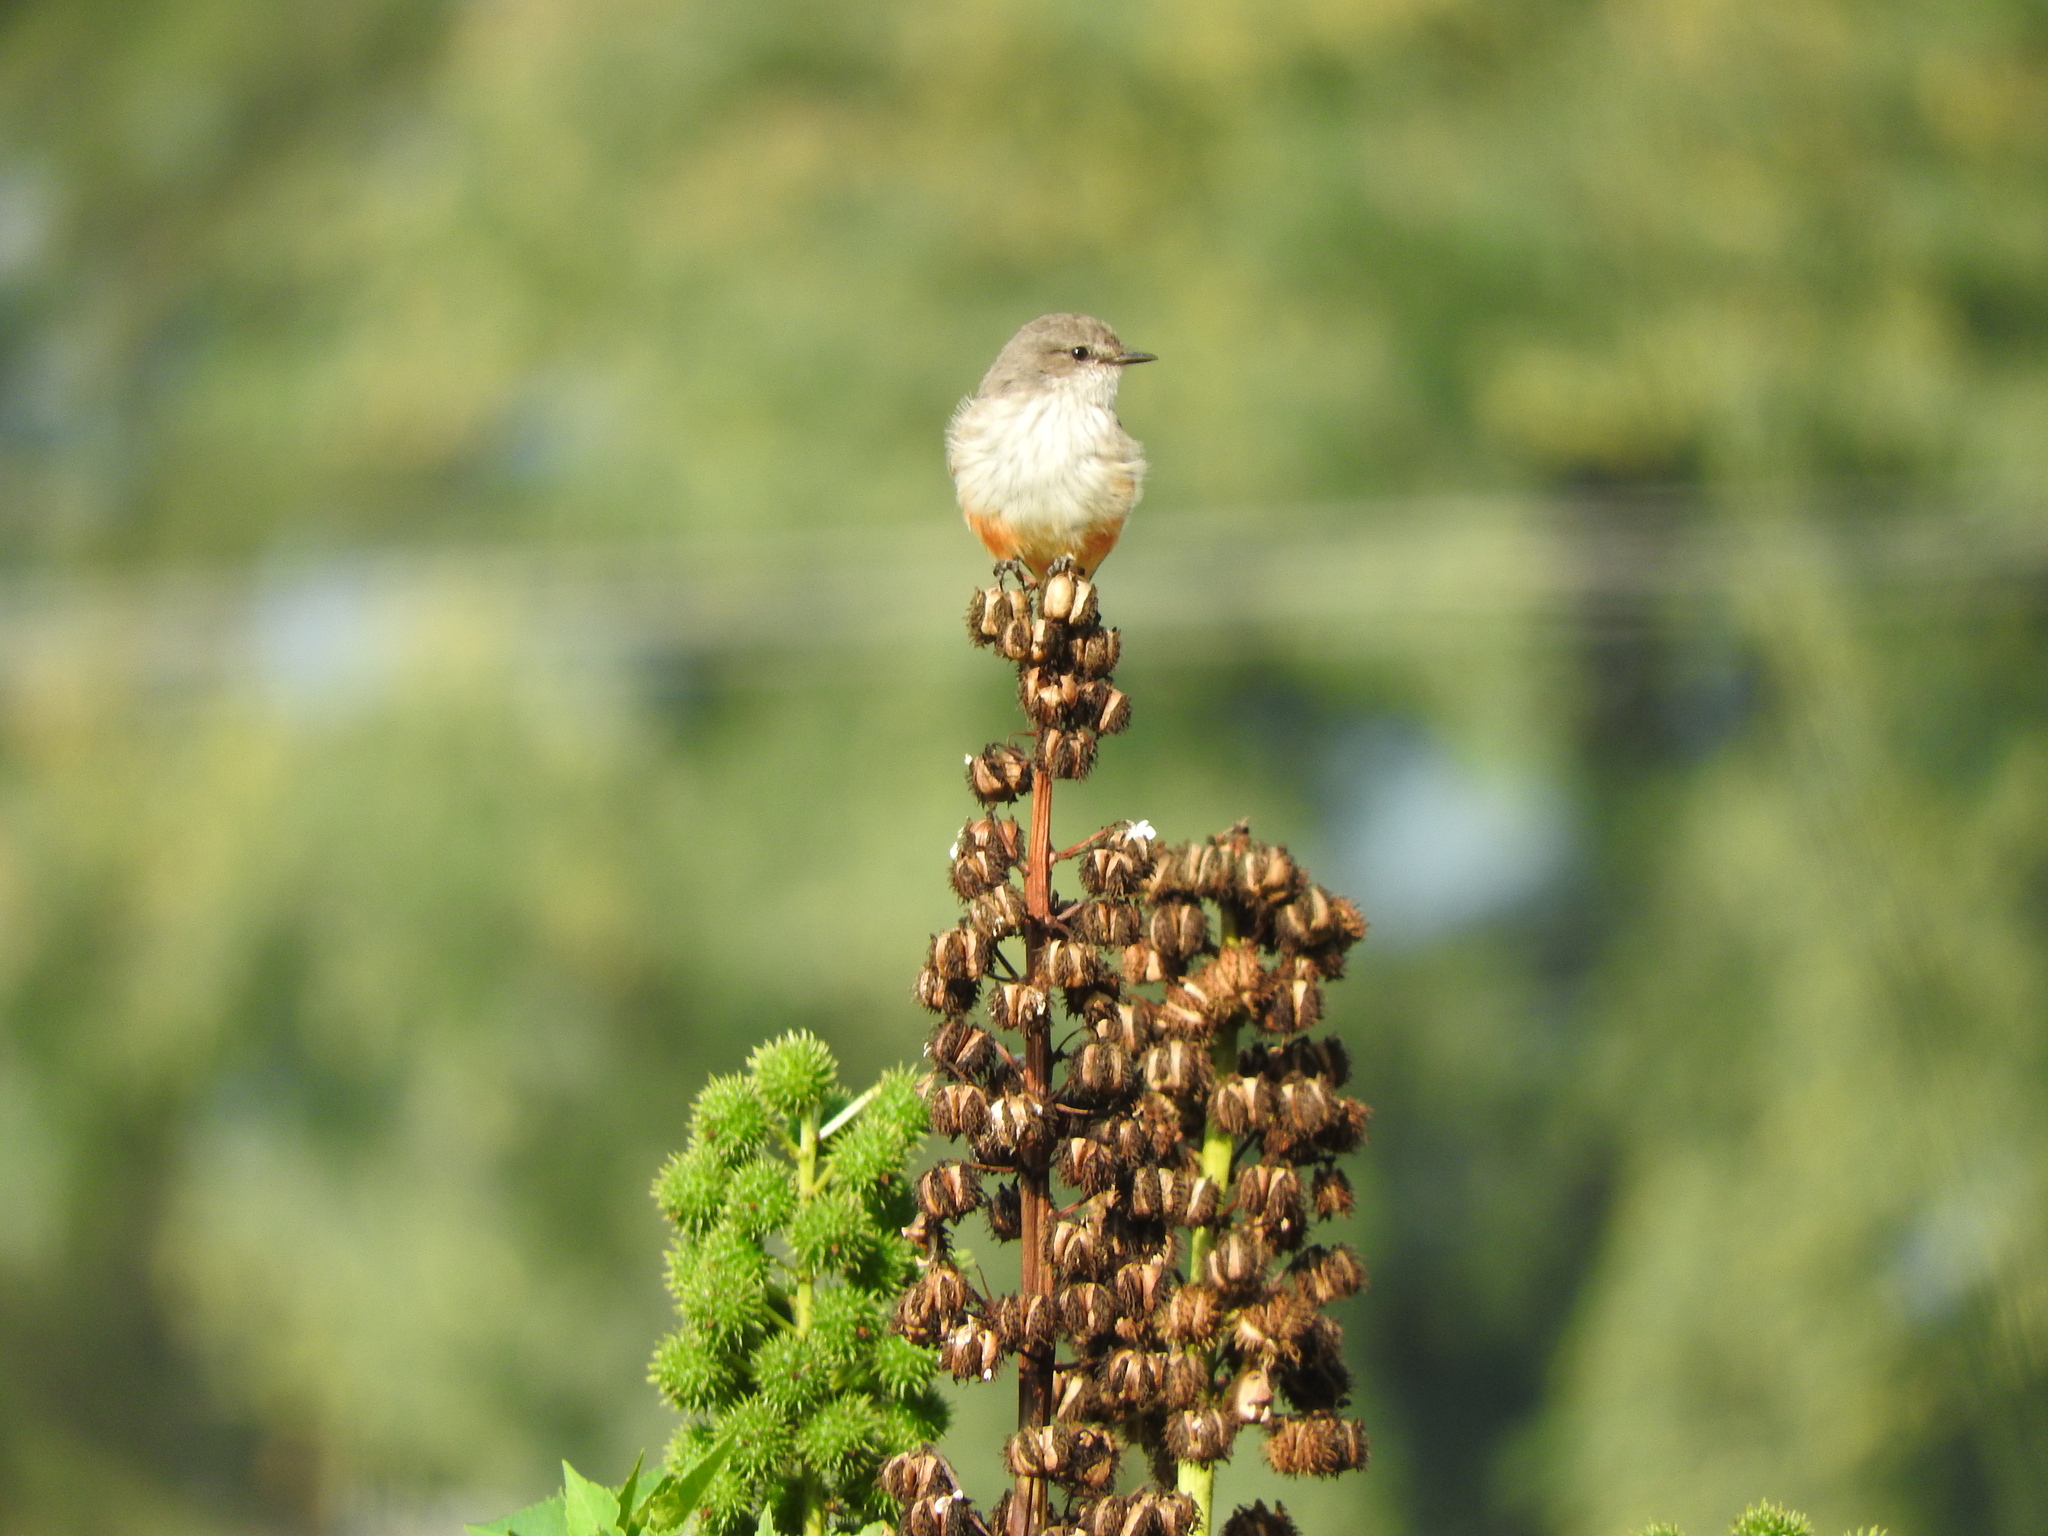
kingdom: Plantae
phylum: Tracheophyta
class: Magnoliopsida
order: Malpighiales
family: Euphorbiaceae
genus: Ricinus
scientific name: Ricinus communis
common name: Castor-oil-plant
